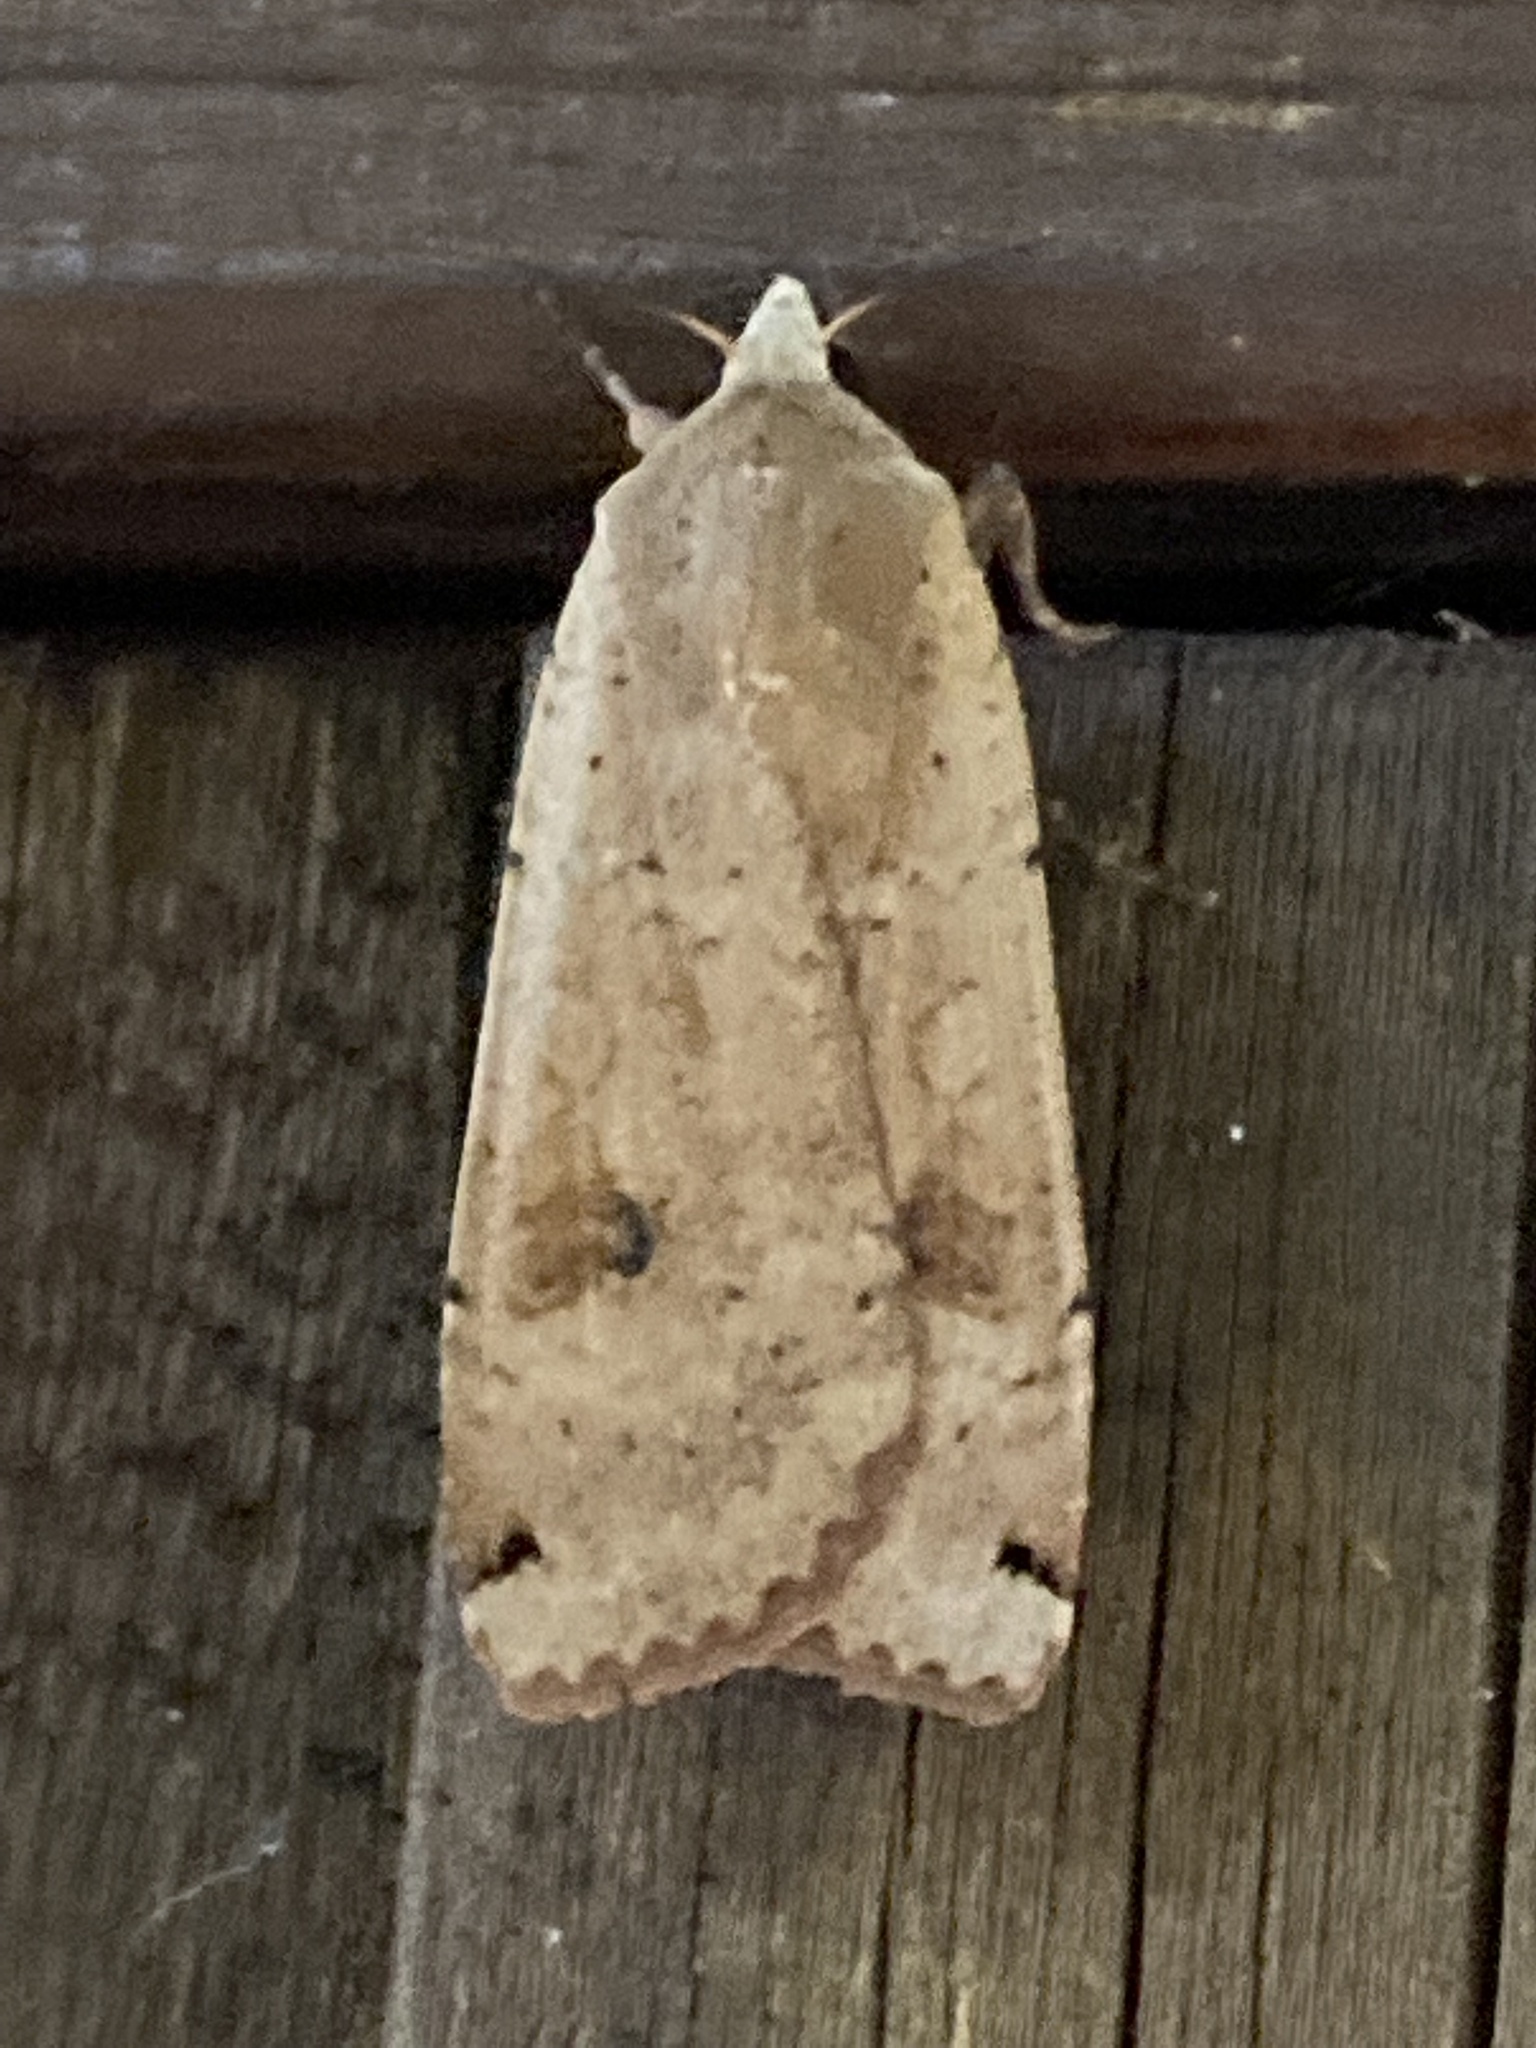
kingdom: Animalia
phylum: Arthropoda
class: Insecta
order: Lepidoptera
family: Noctuidae
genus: Noctua
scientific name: Noctua pronuba
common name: Large yellow underwing
